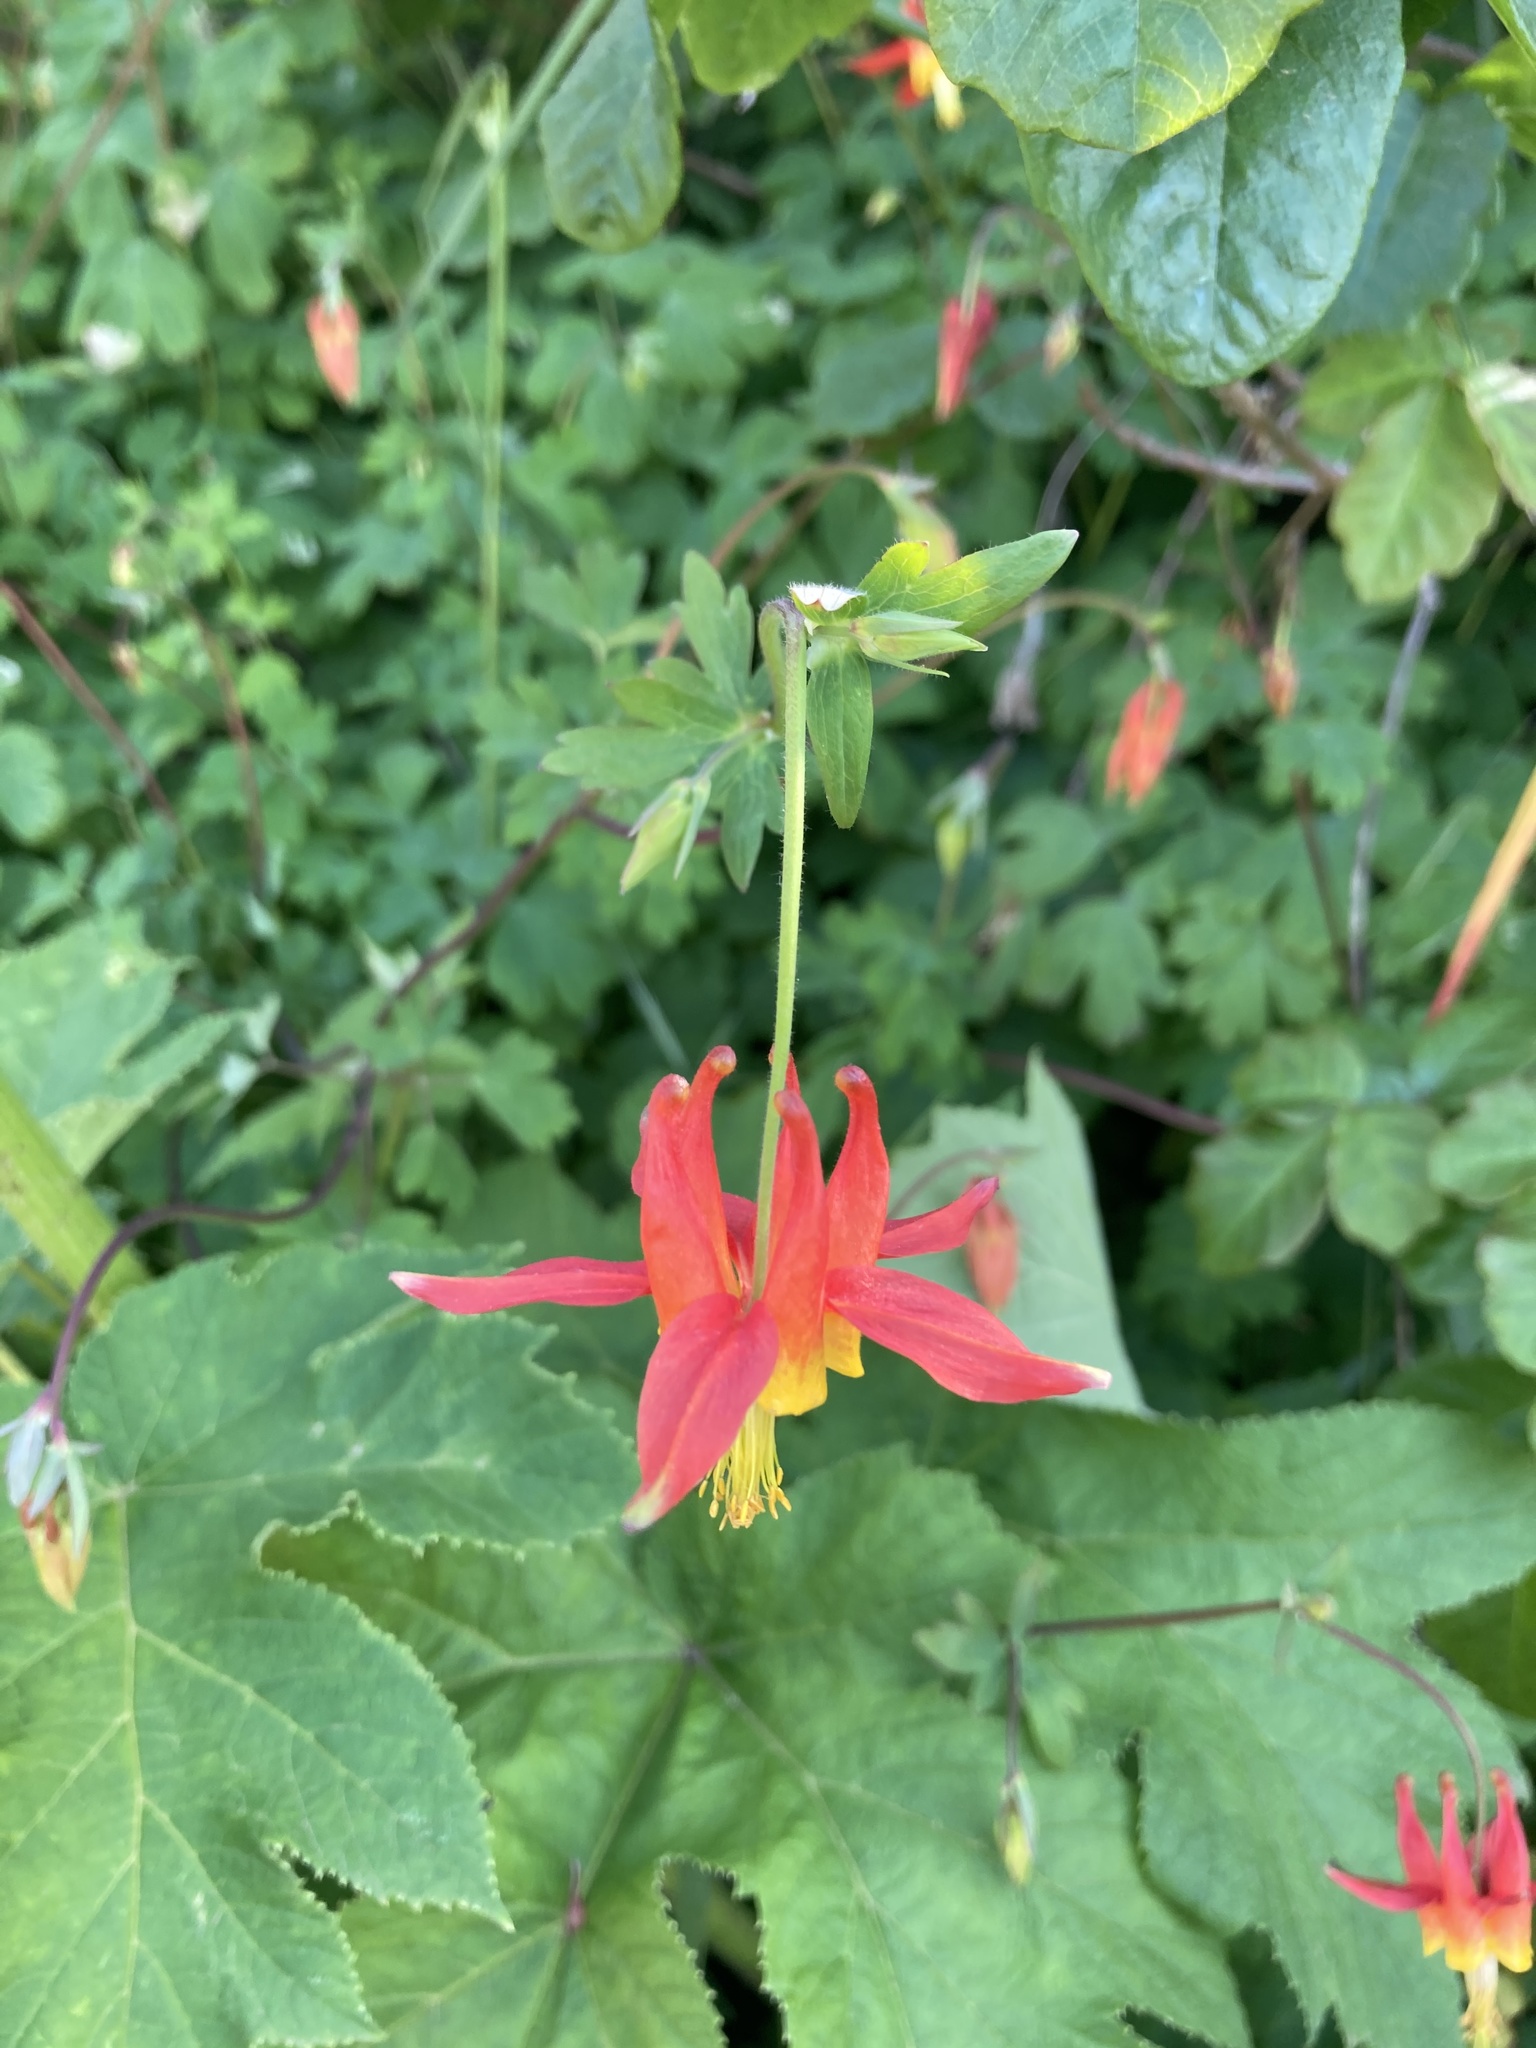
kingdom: Plantae
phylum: Tracheophyta
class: Magnoliopsida
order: Ranunculales
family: Ranunculaceae
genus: Aquilegia
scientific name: Aquilegia formosa
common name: Sitka columbine
